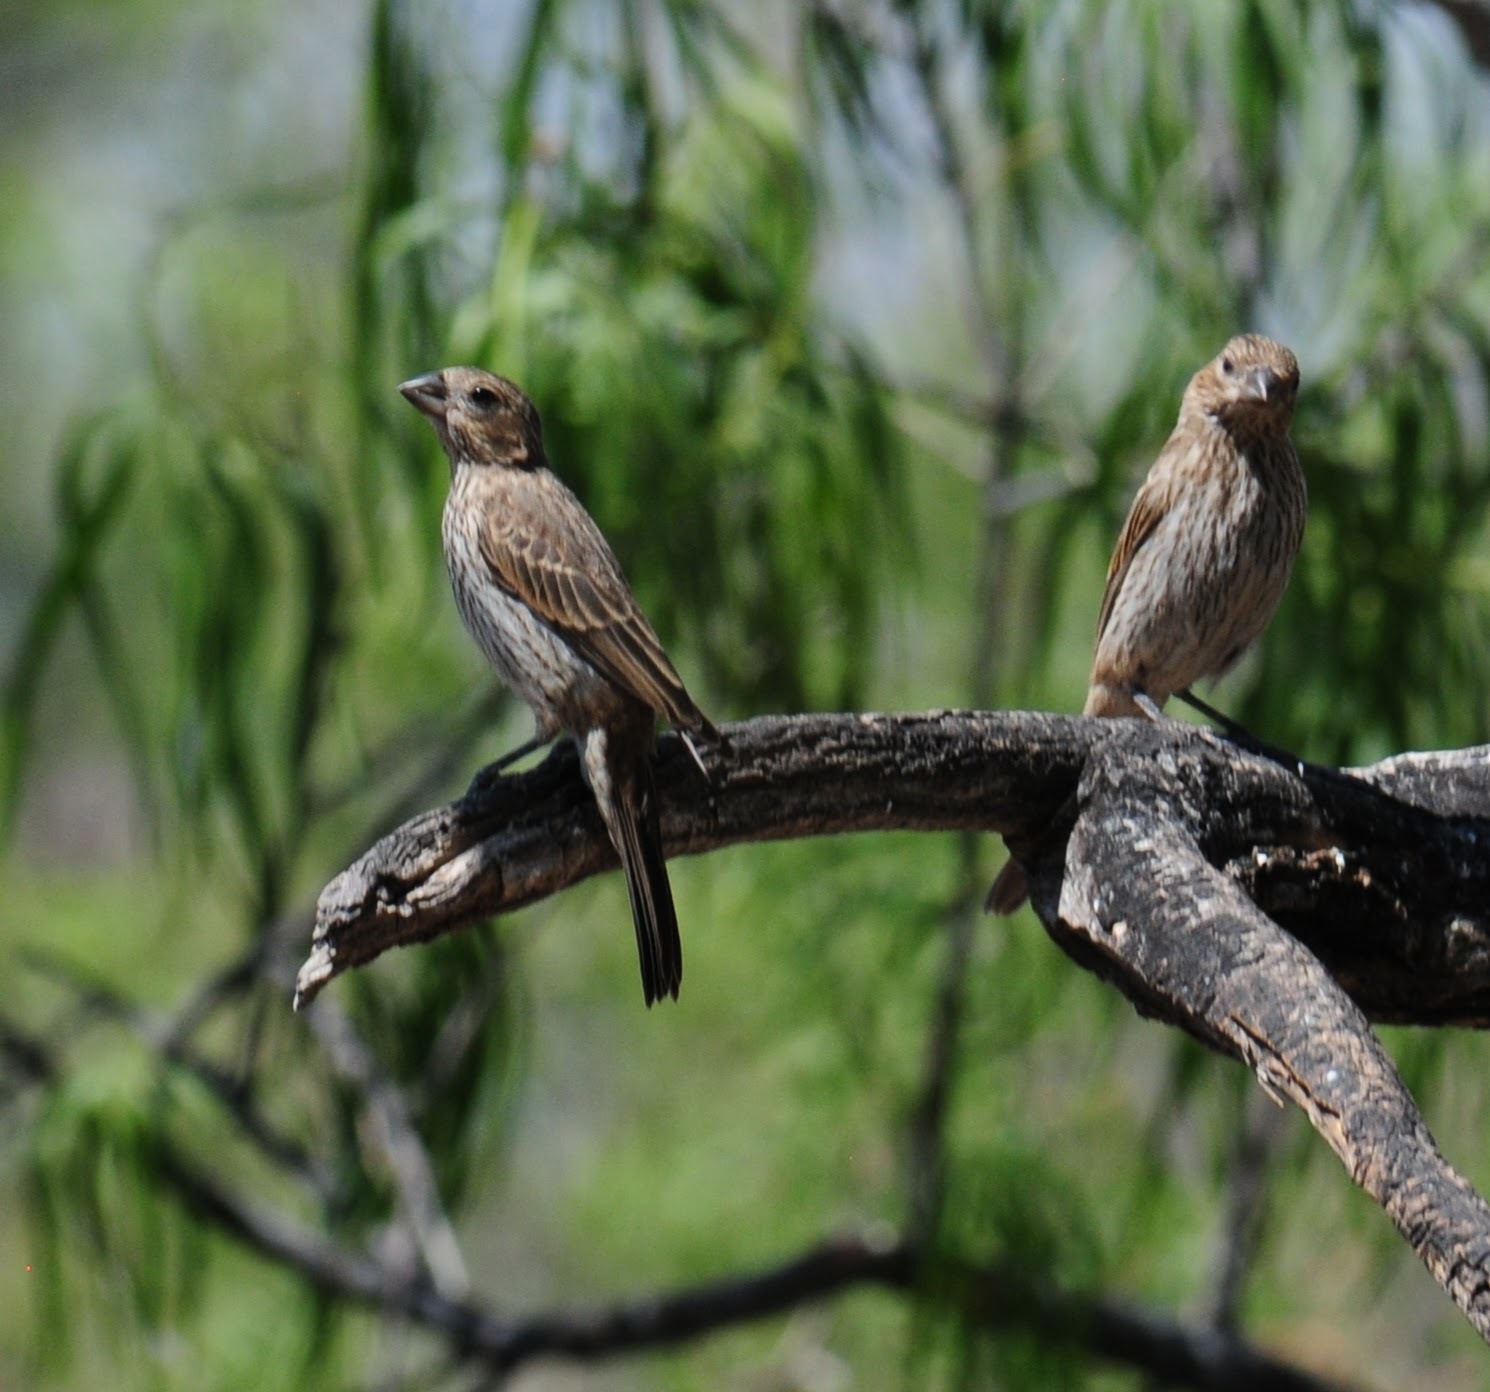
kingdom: Animalia
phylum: Chordata
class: Aves
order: Passeriformes
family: Fringillidae
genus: Haemorhous
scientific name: Haemorhous mexicanus
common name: House finch
